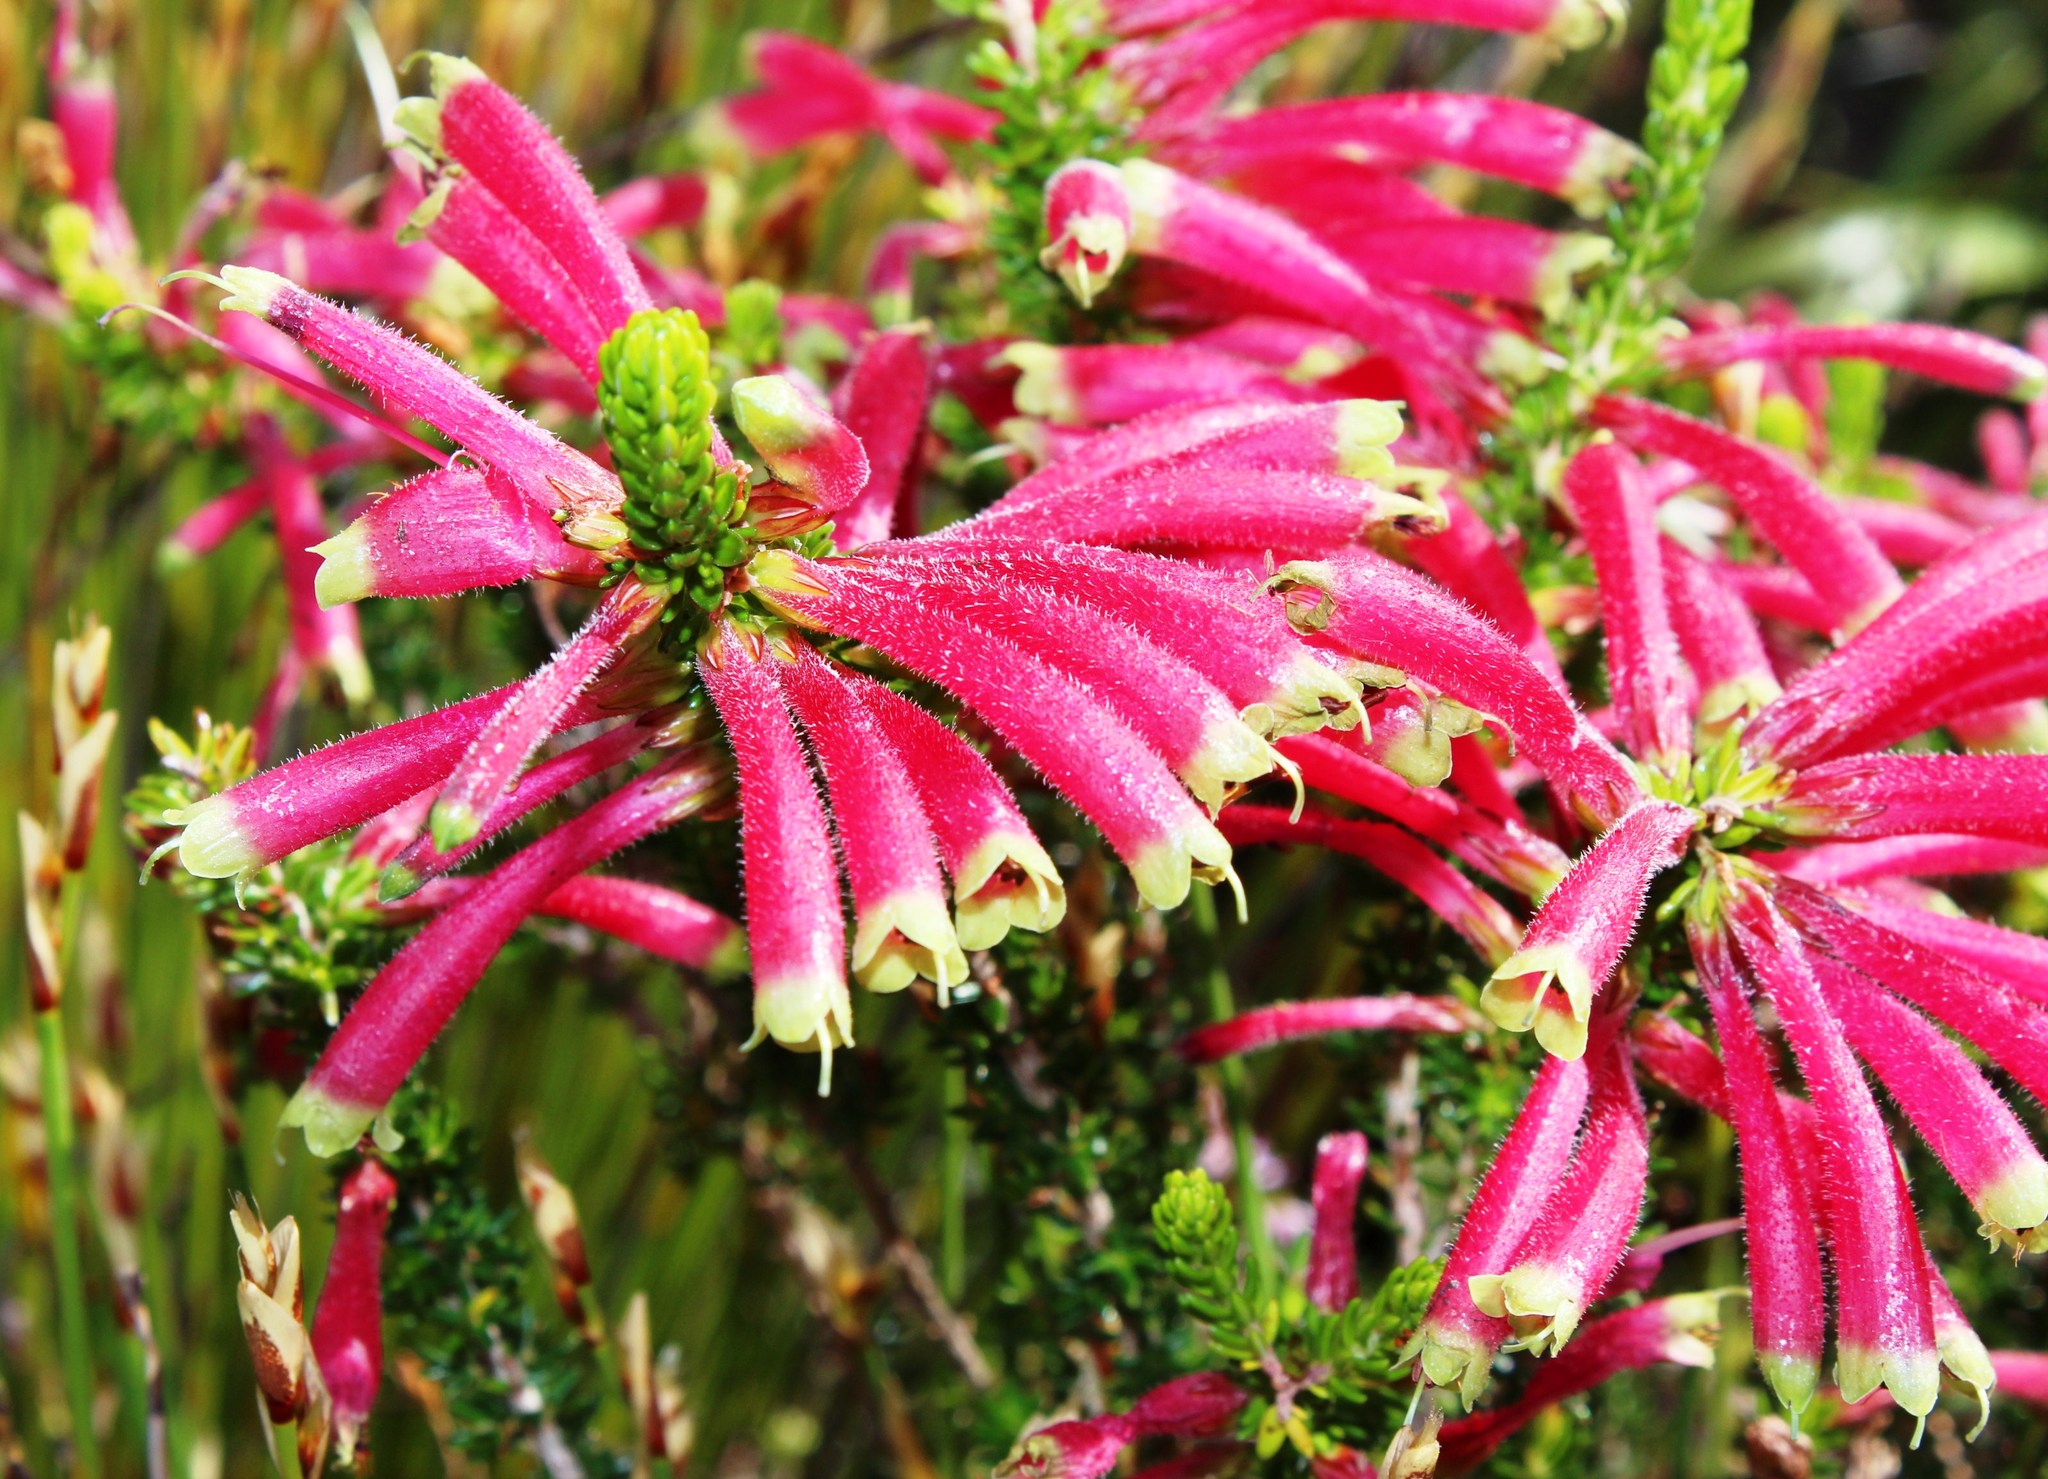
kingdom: Plantae
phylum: Tracheophyta
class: Magnoliopsida
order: Ericales
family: Ericaceae
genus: Erica
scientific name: Erica densifolia
